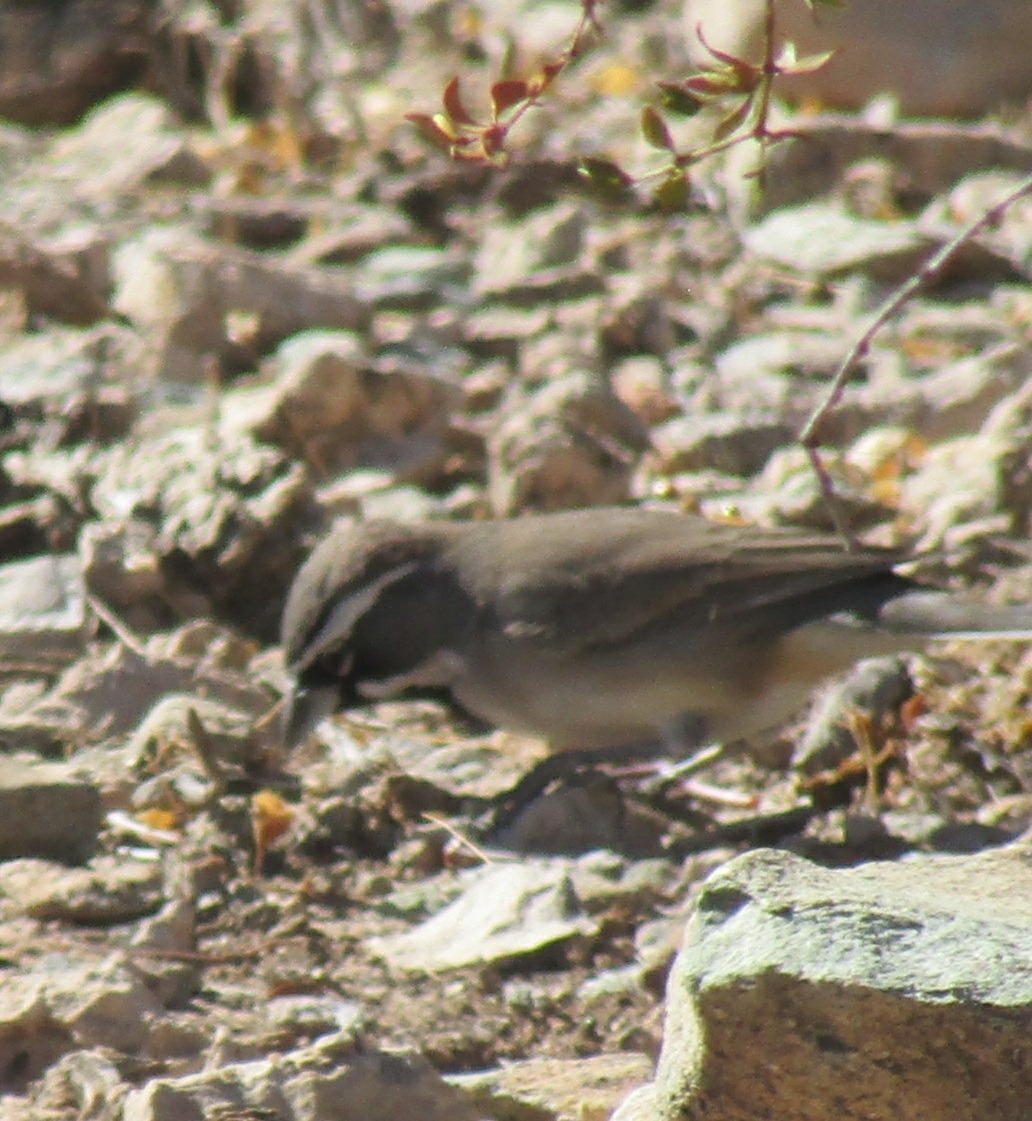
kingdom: Animalia
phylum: Chordata
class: Aves
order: Passeriformes
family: Passerellidae
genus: Amphispiza
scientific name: Amphispiza bilineata
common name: Black-throated sparrow
